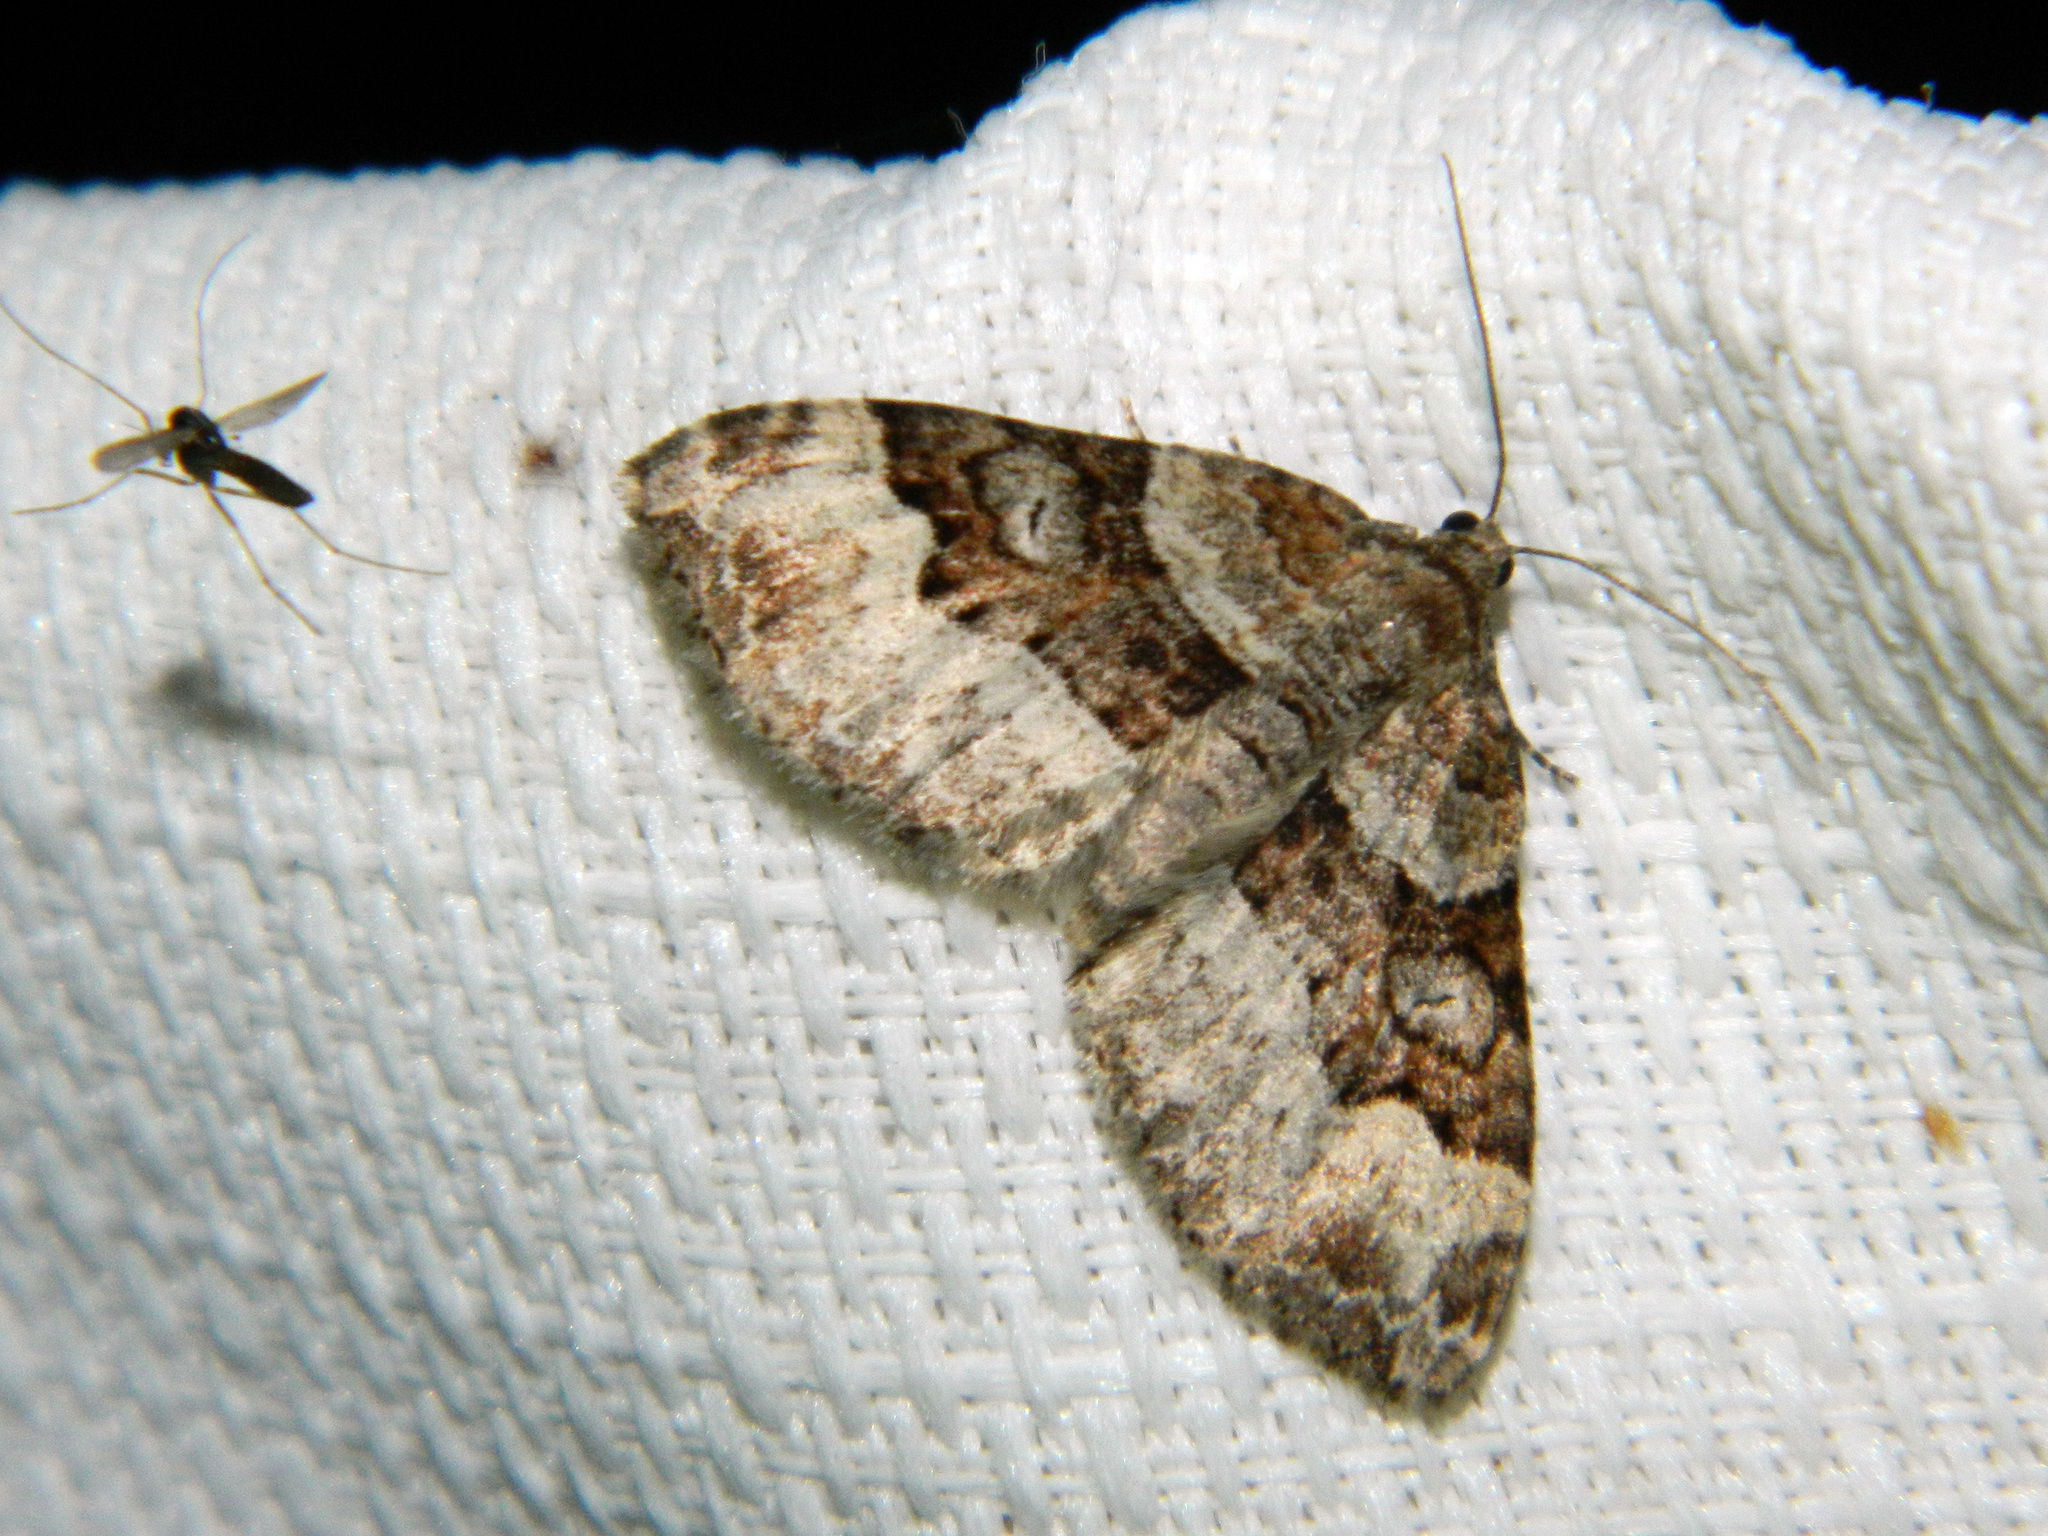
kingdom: Animalia
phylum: Arthropoda
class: Insecta
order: Lepidoptera
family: Geometridae
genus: Xanthorhoe
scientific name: Xanthorhoe lacustrata
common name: Toothed brown carpet
